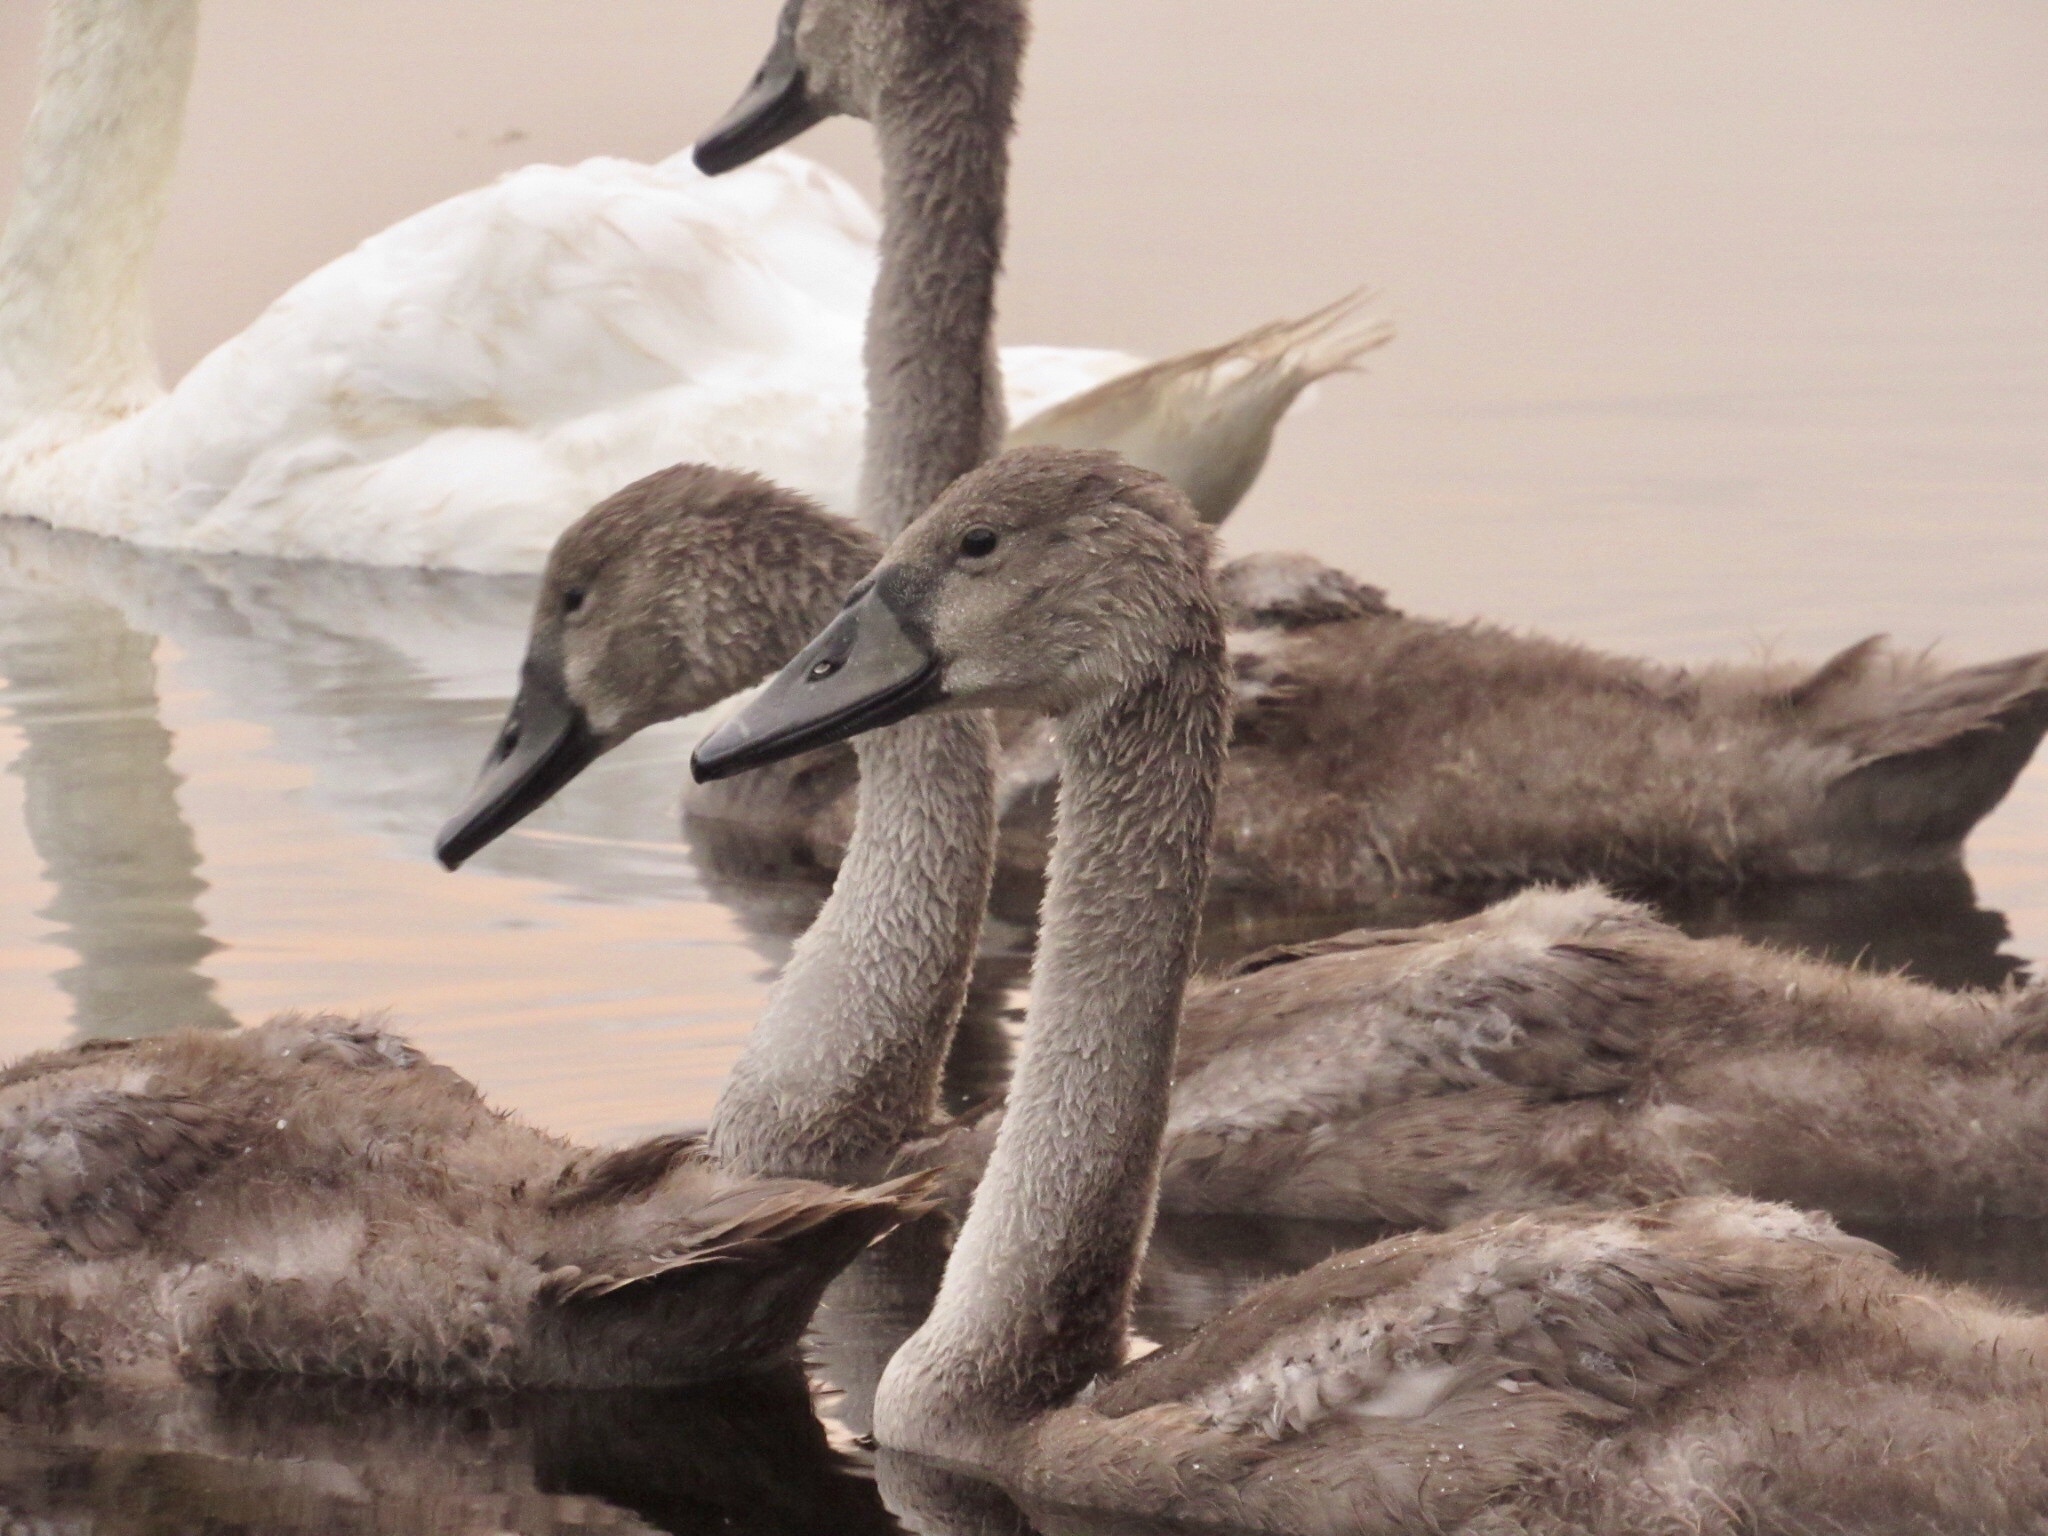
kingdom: Animalia
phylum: Chordata
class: Aves
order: Anseriformes
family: Anatidae
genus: Cygnus
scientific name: Cygnus olor
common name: Mute swan
